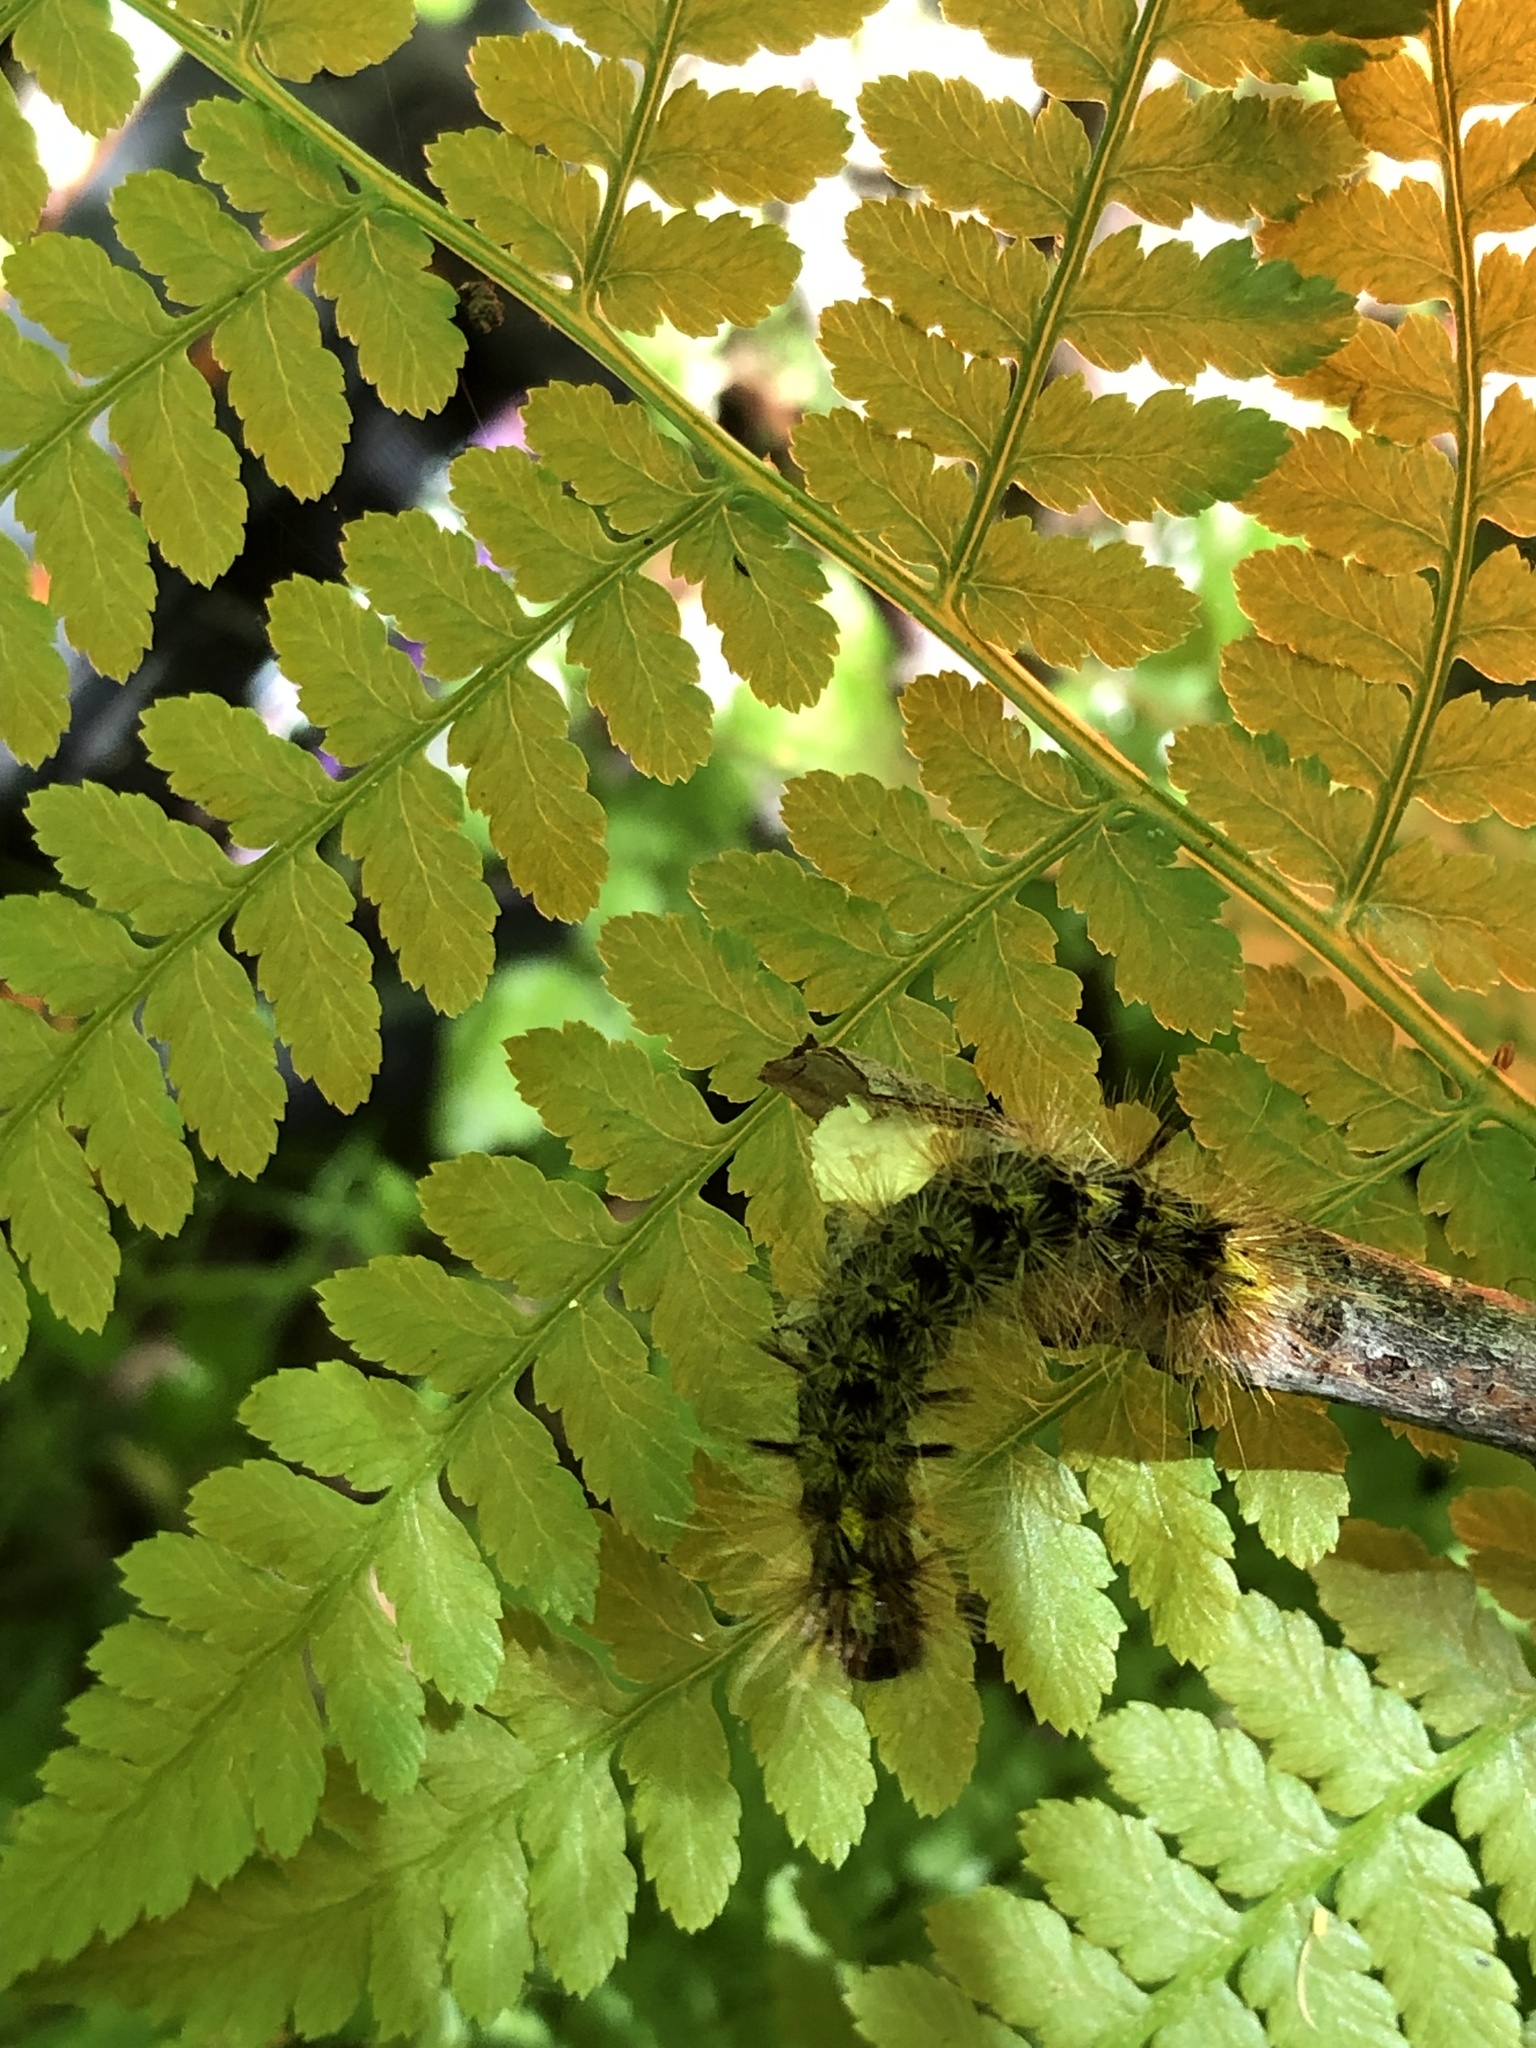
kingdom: Animalia
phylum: Arthropoda
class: Insecta
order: Lepidoptera
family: Erebidae
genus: Lophocampa
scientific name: Lophocampa argentata
